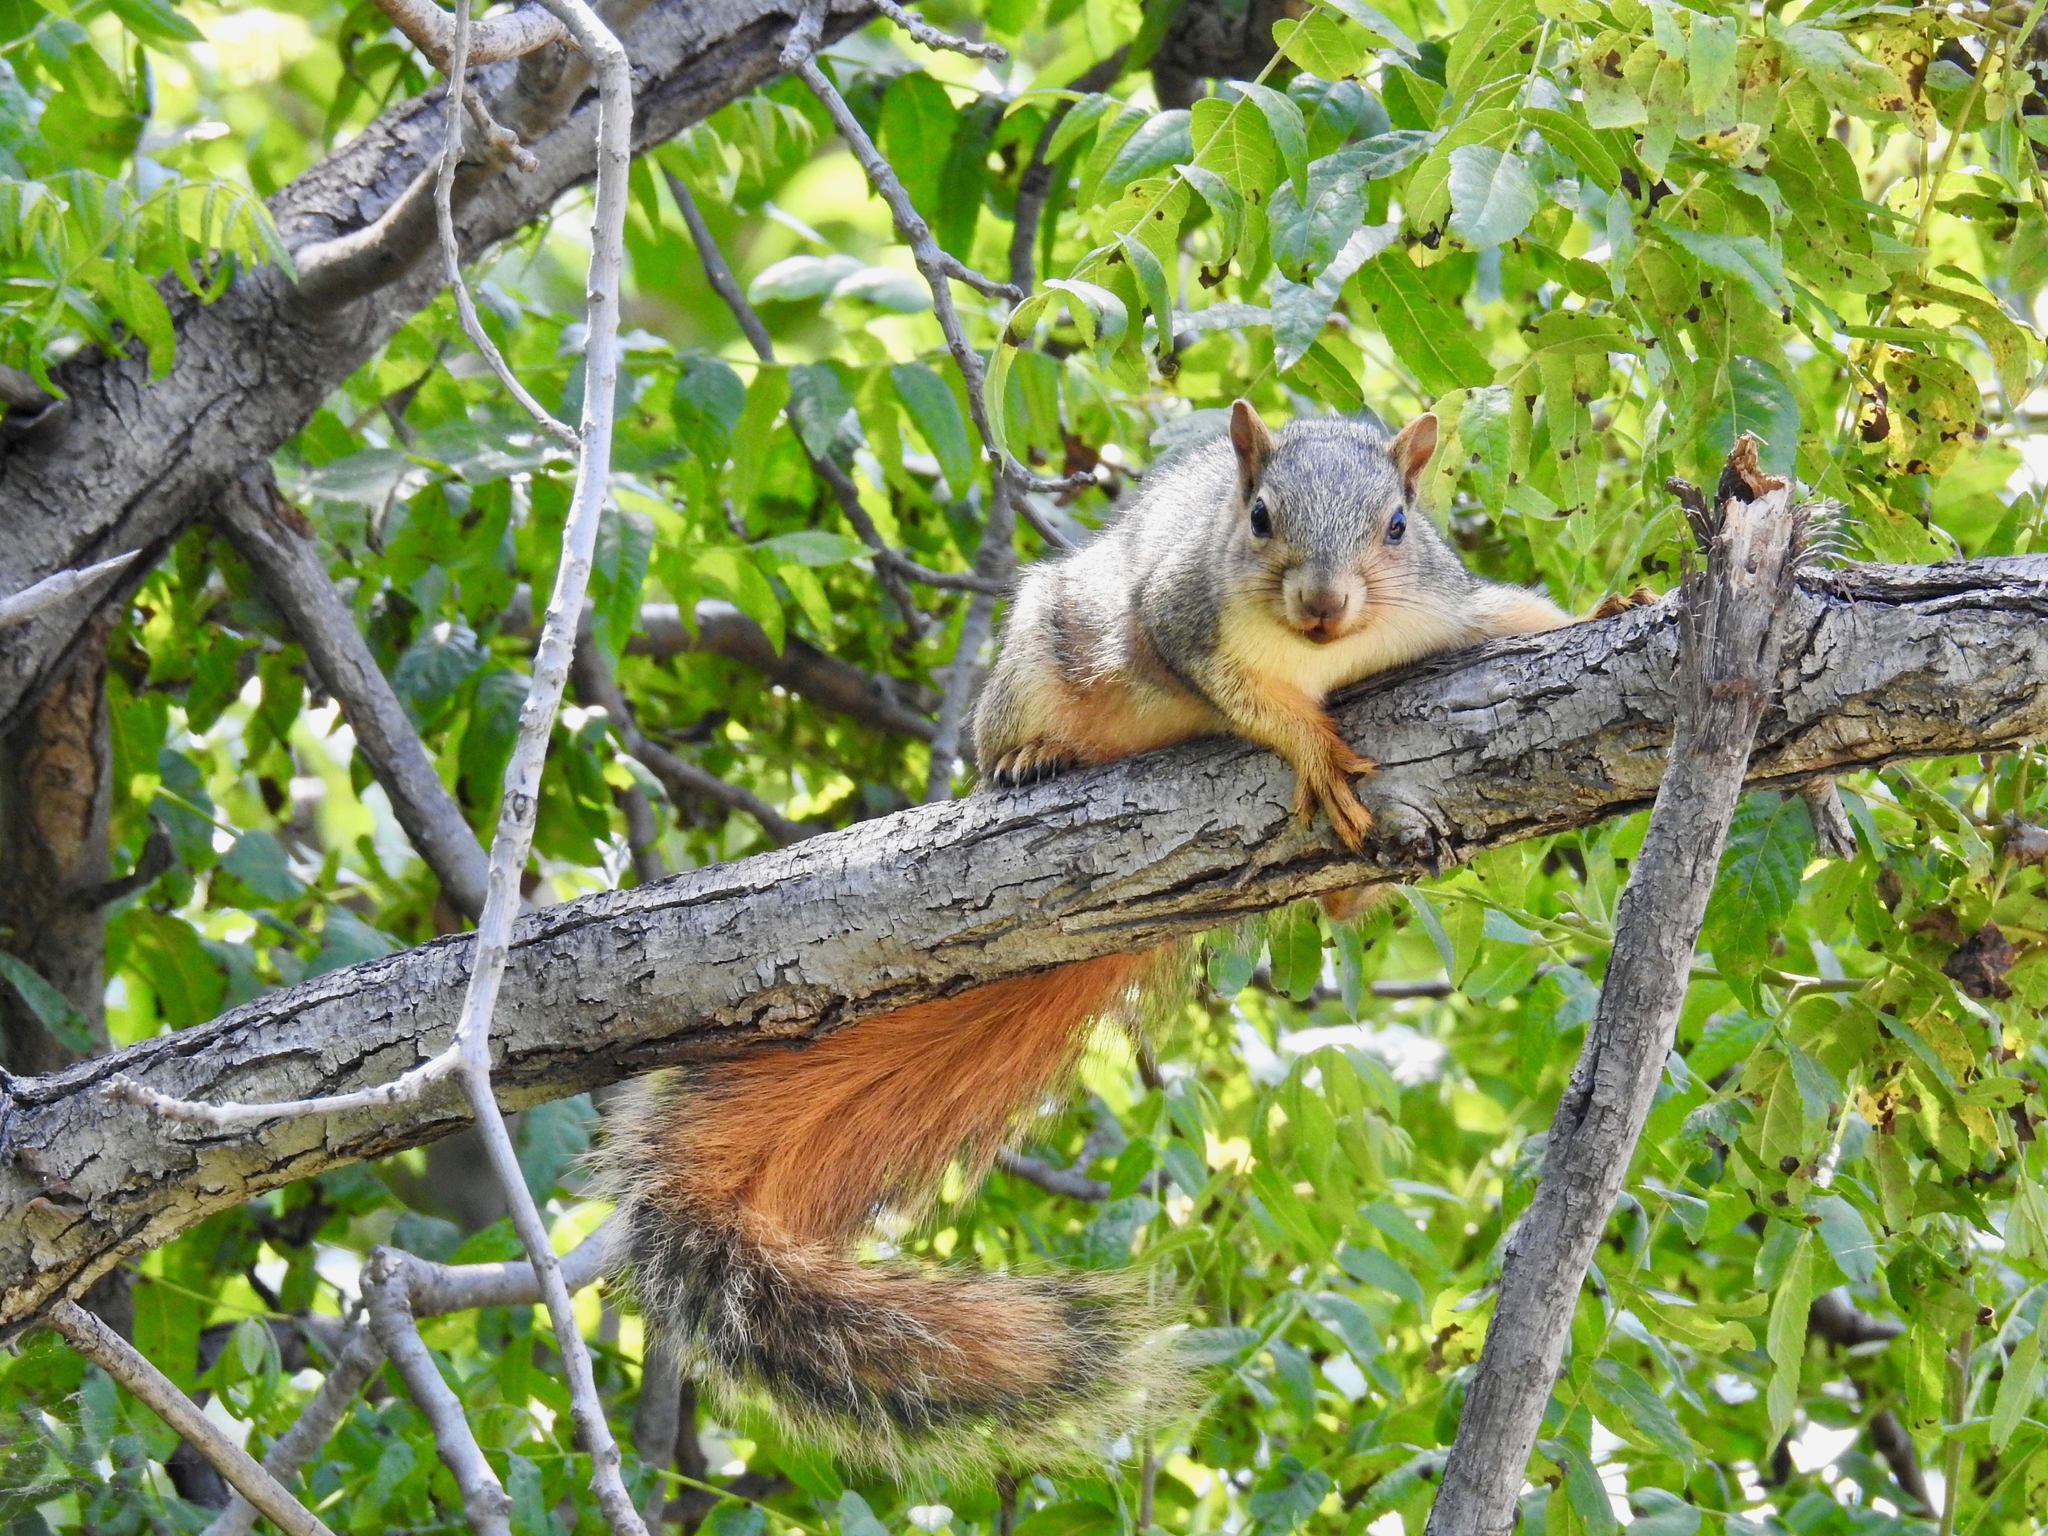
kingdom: Animalia
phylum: Chordata
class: Mammalia
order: Rodentia
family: Sciuridae
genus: Sciurus
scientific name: Sciurus niger
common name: Fox squirrel
